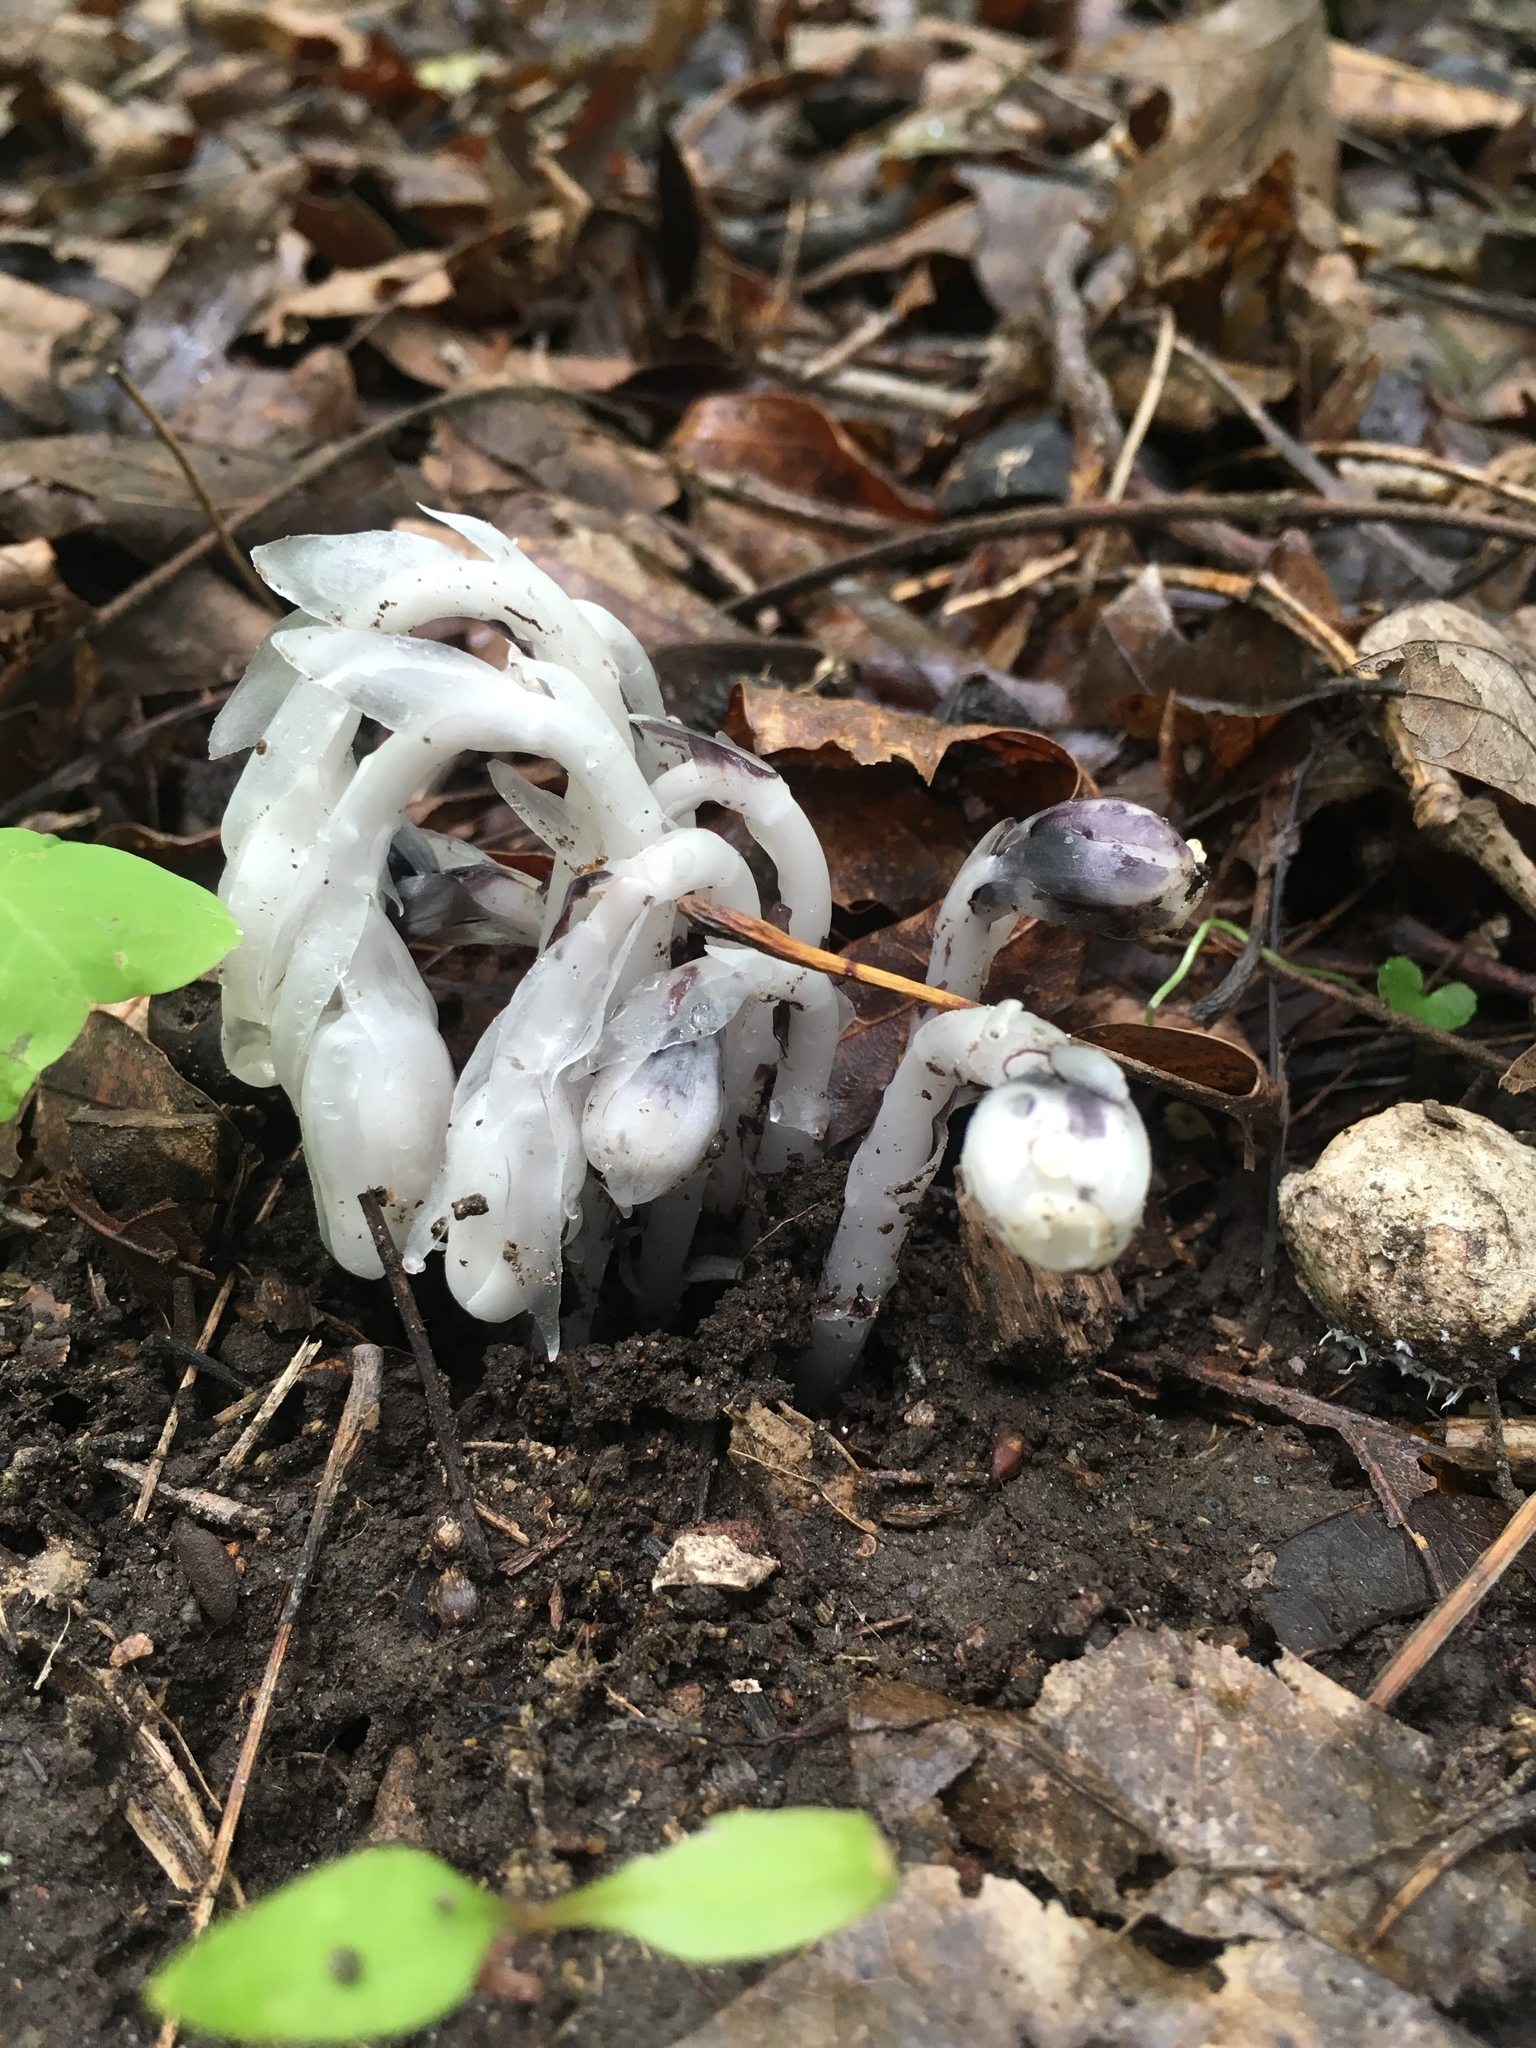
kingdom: Plantae
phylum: Tracheophyta
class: Magnoliopsida
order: Ericales
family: Ericaceae
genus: Monotropa
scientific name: Monotropa uniflora
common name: Convulsion root
